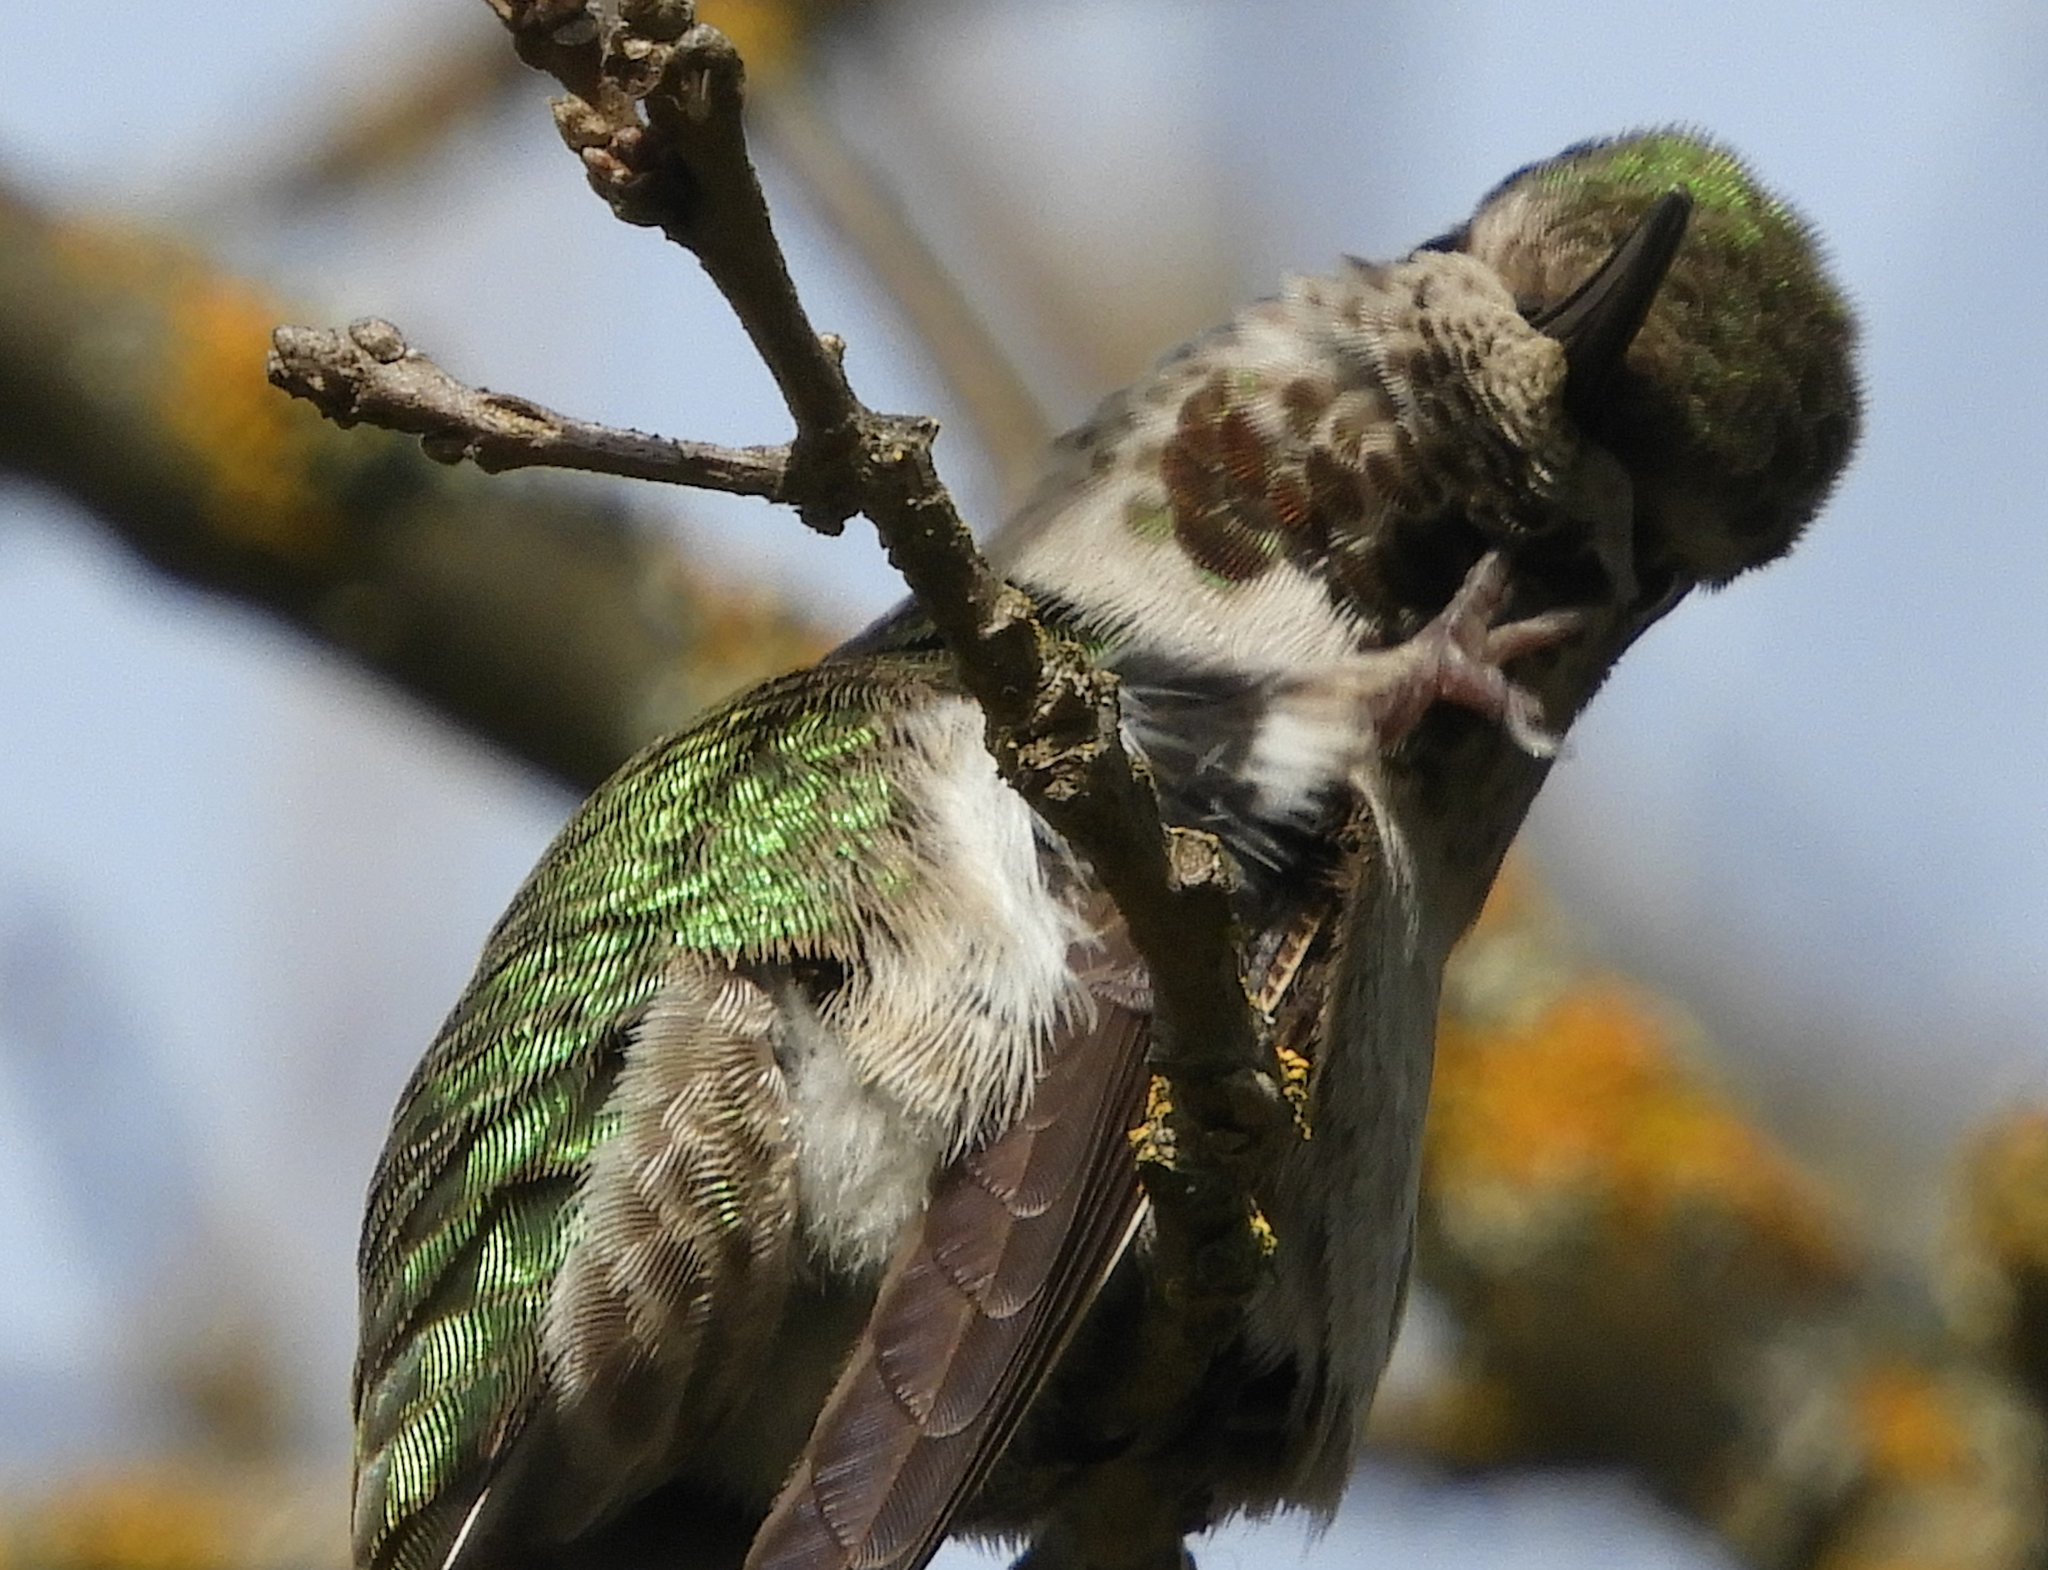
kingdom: Animalia
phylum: Chordata
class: Aves
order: Apodiformes
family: Trochilidae
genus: Calypte
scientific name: Calypte anna
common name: Anna's hummingbird
